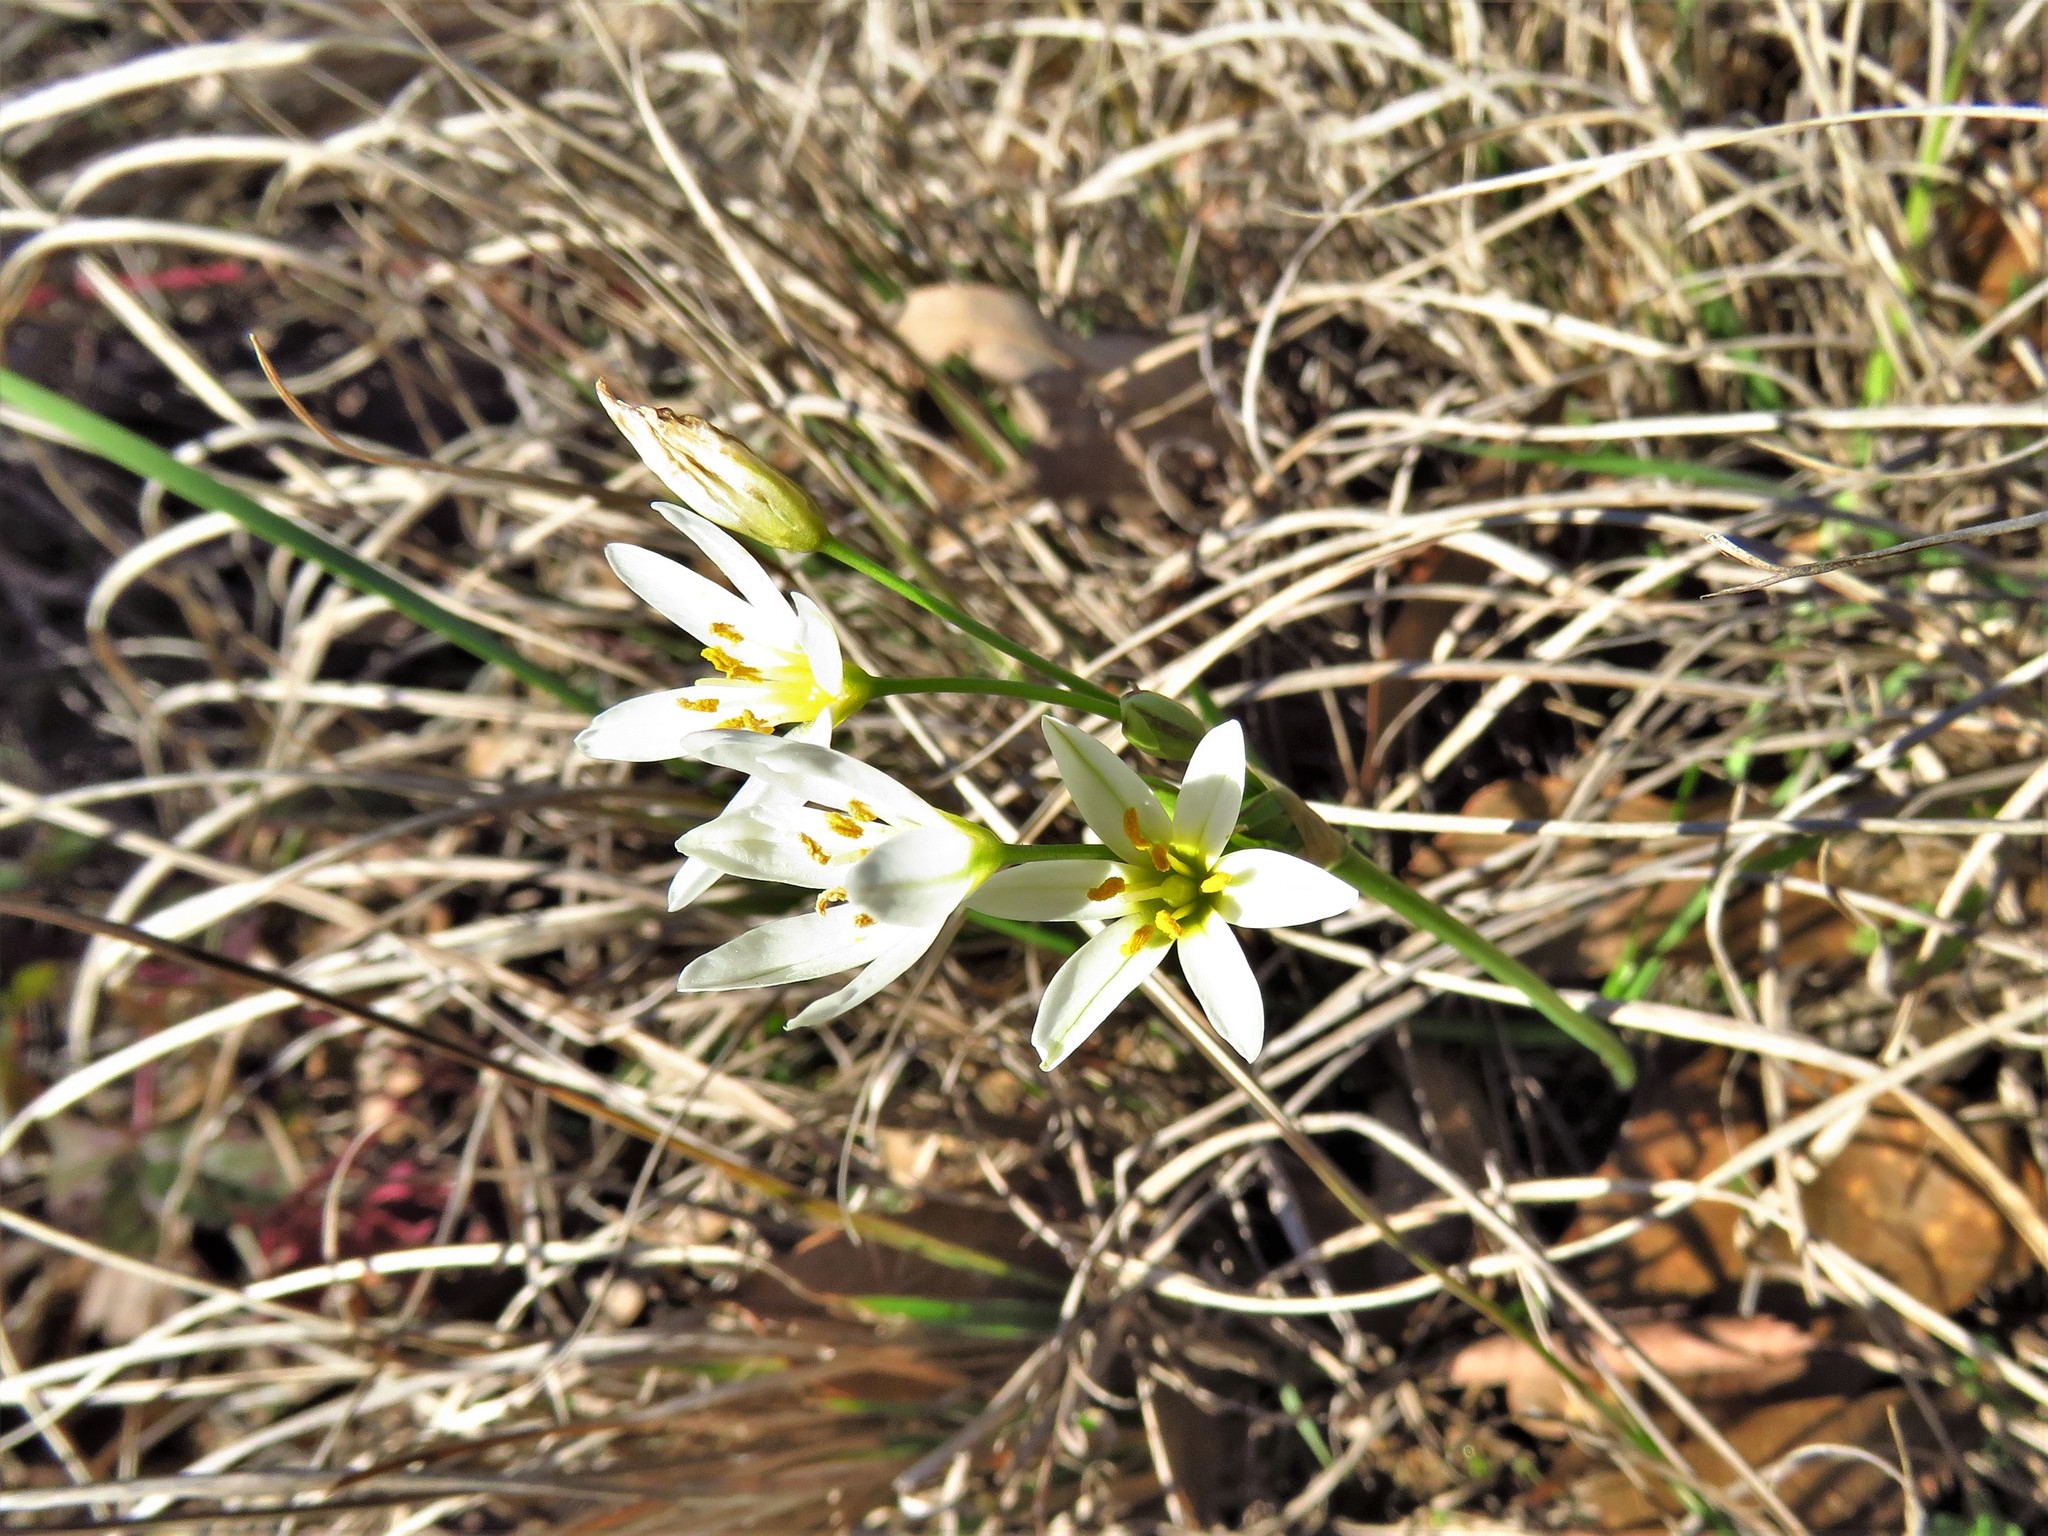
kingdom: Plantae
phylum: Tracheophyta
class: Liliopsida
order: Asparagales
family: Amaryllidaceae
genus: Nothoscordum
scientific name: Nothoscordum bivalve
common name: Crow-poison
